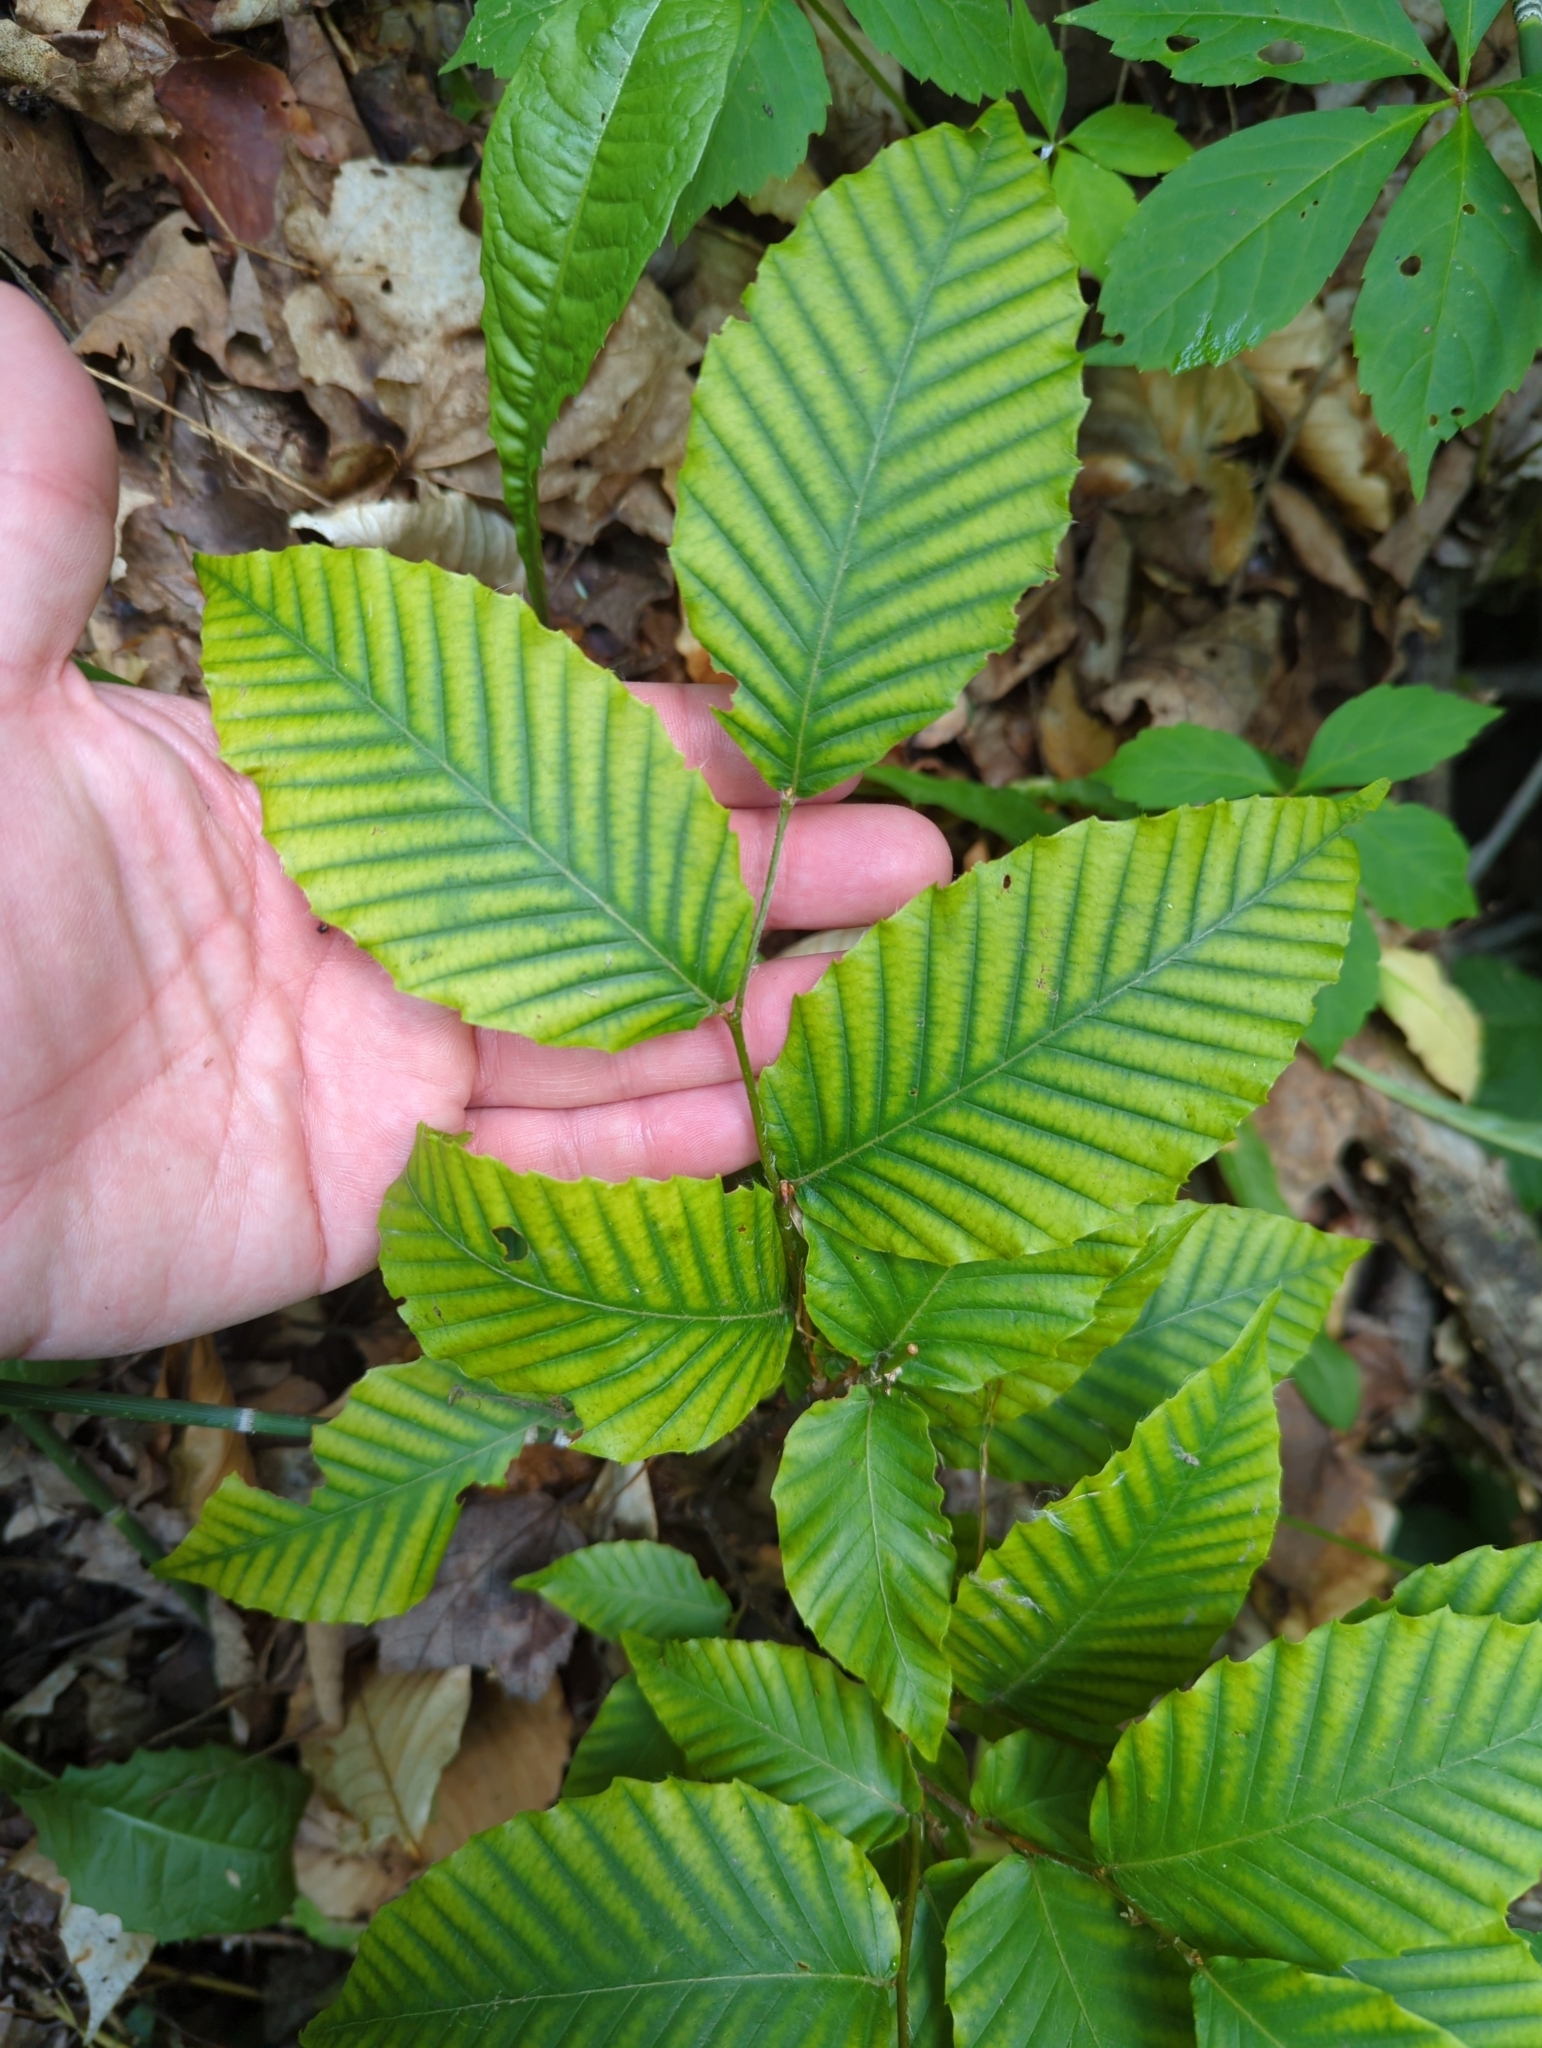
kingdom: Plantae
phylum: Tracheophyta
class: Magnoliopsida
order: Fagales
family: Fagaceae
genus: Fagus
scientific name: Fagus grandifolia
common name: American beech
